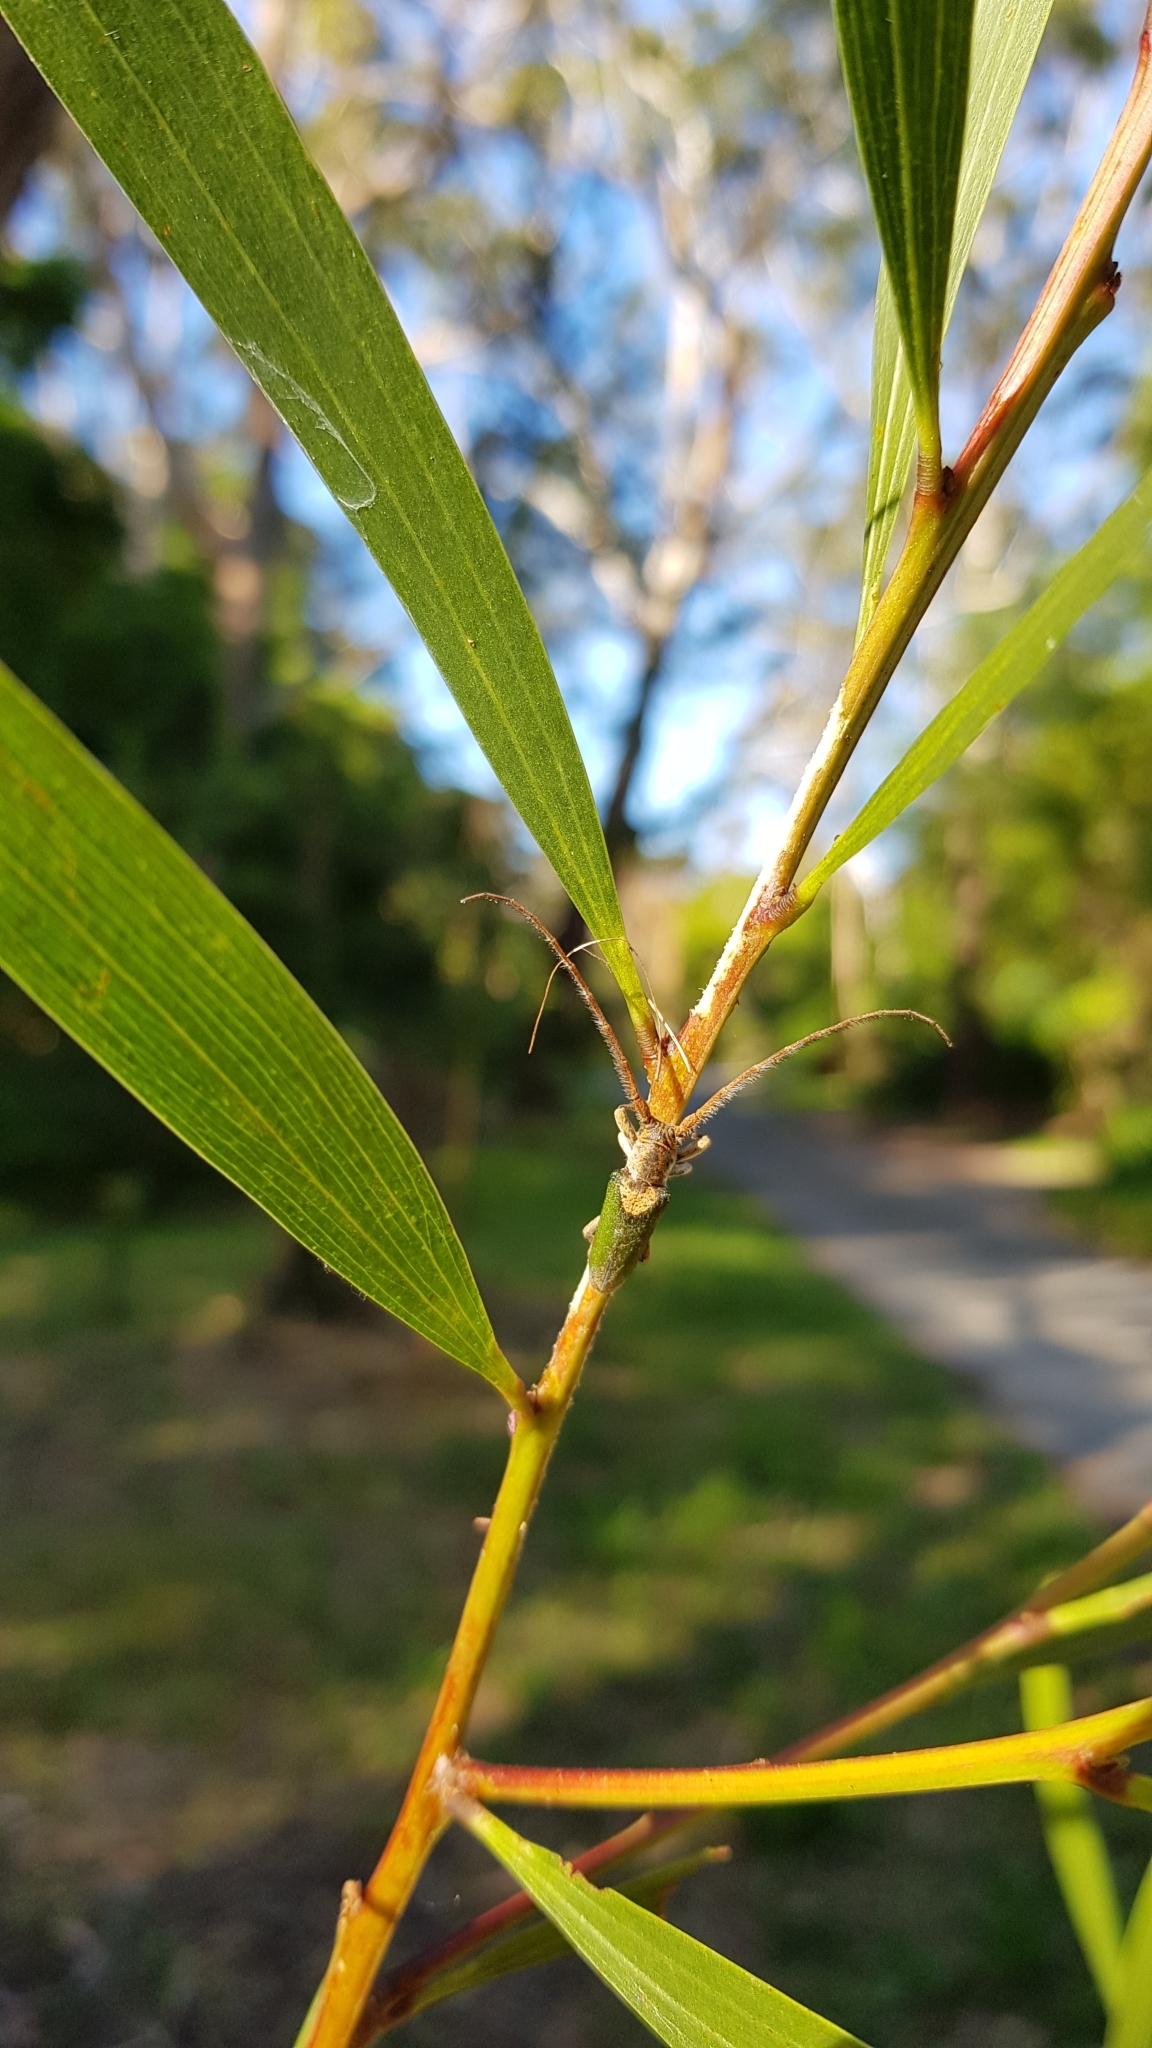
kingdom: Animalia
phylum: Arthropoda
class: Insecta
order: Coleoptera
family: Cerambycidae
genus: Rhytiphora
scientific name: Rhytiphora nigrovirens
